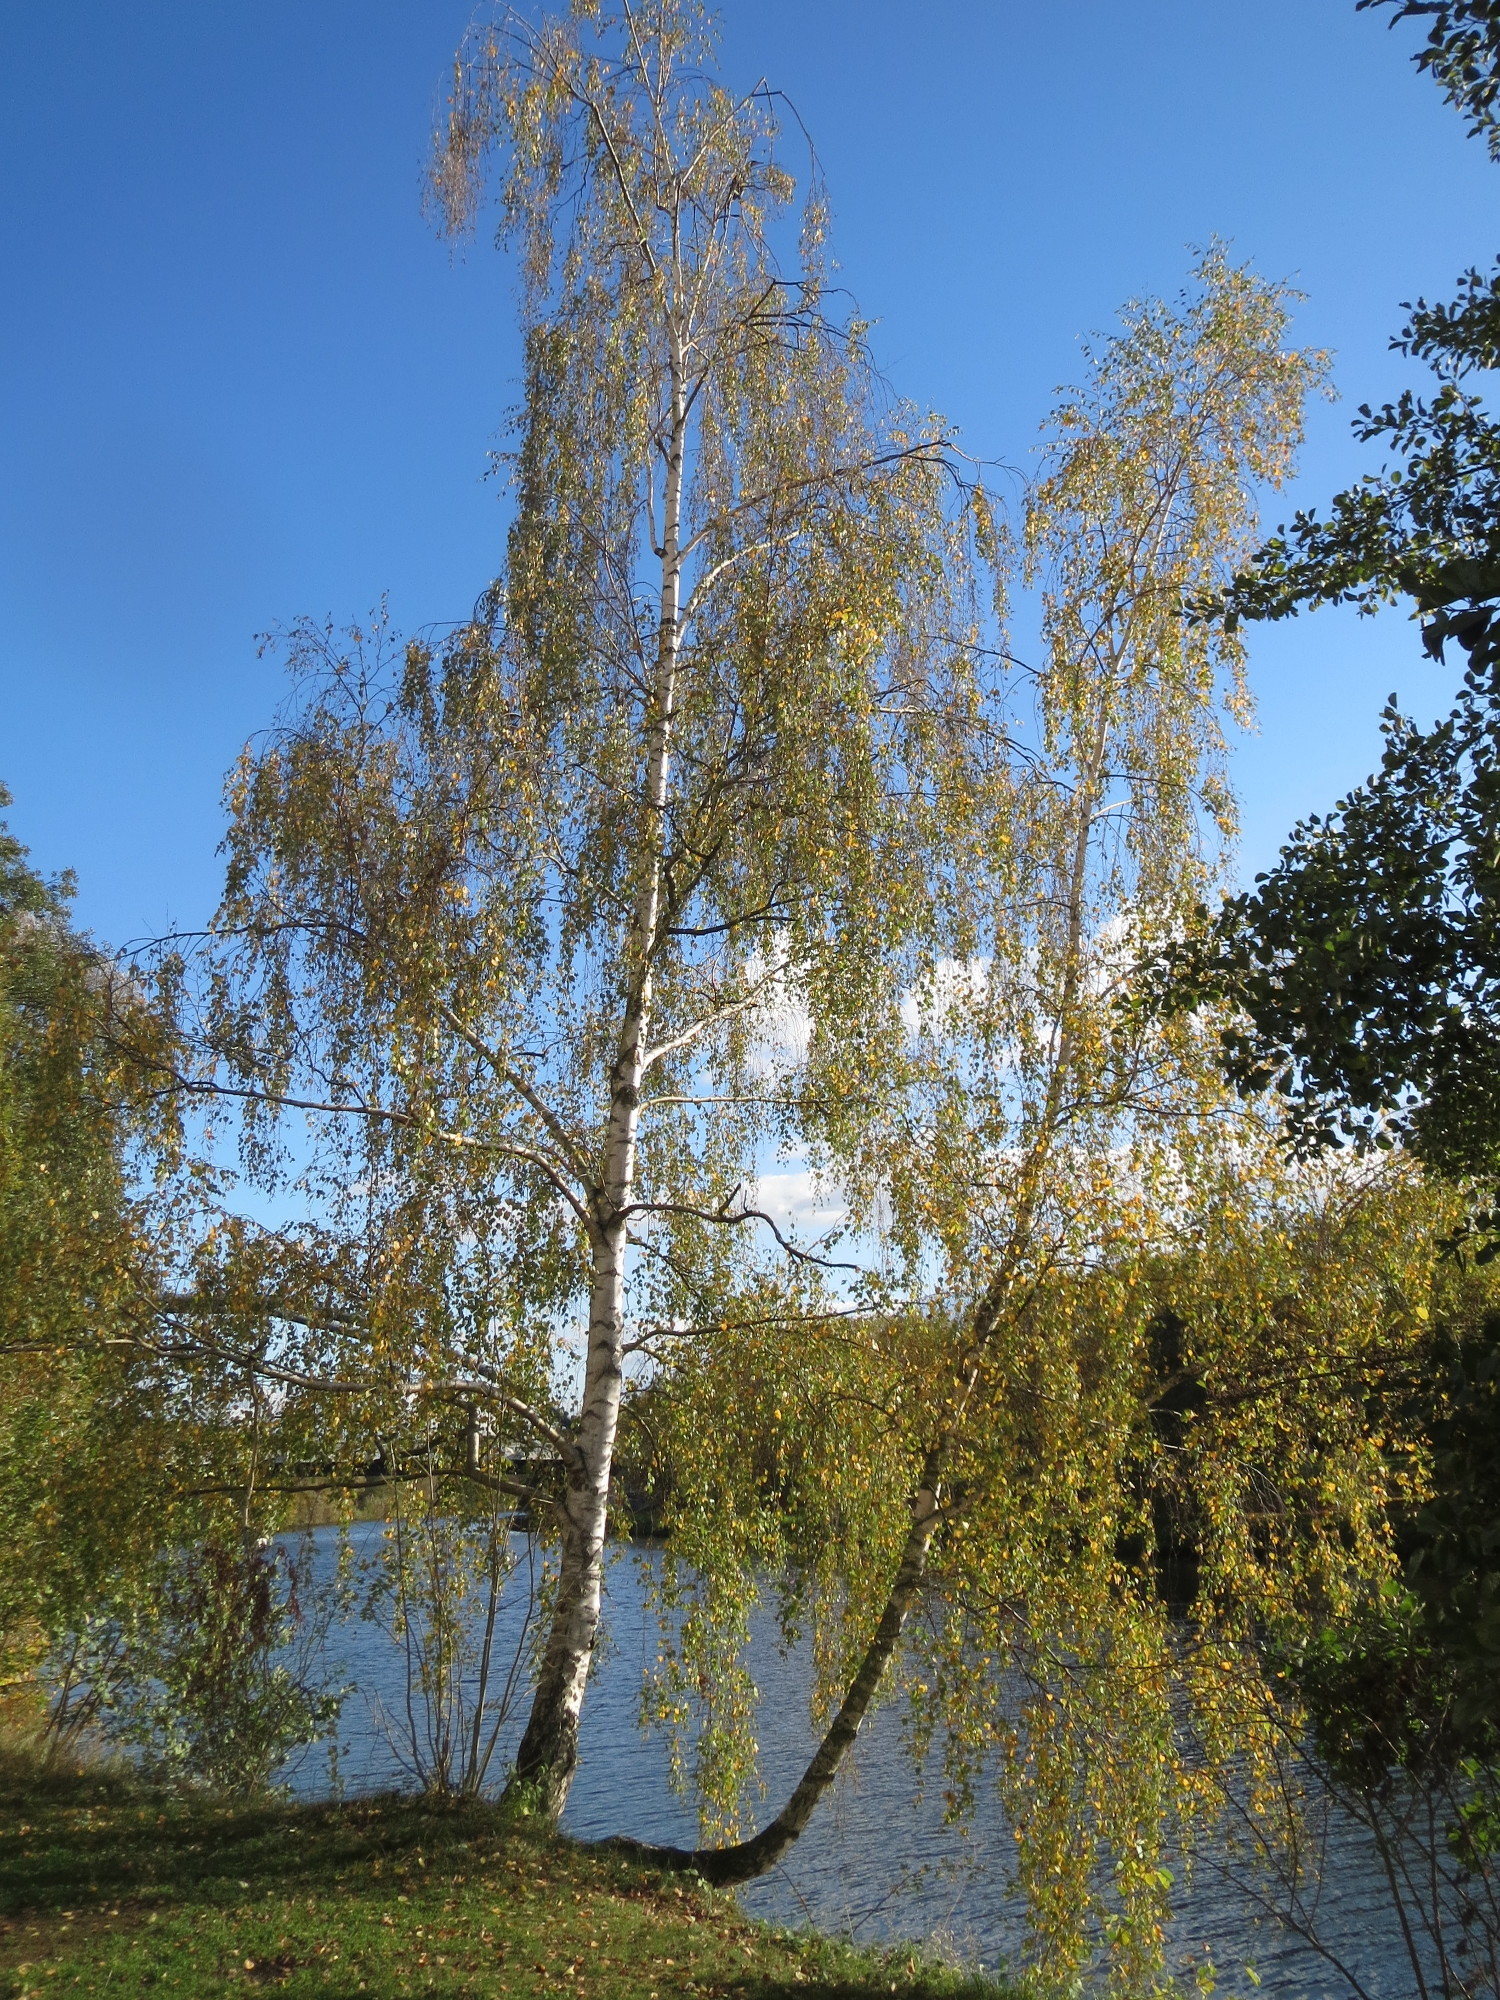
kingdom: Plantae
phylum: Tracheophyta
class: Magnoliopsida
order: Fagales
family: Betulaceae
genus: Betula
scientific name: Betula pendula
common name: Silver birch
